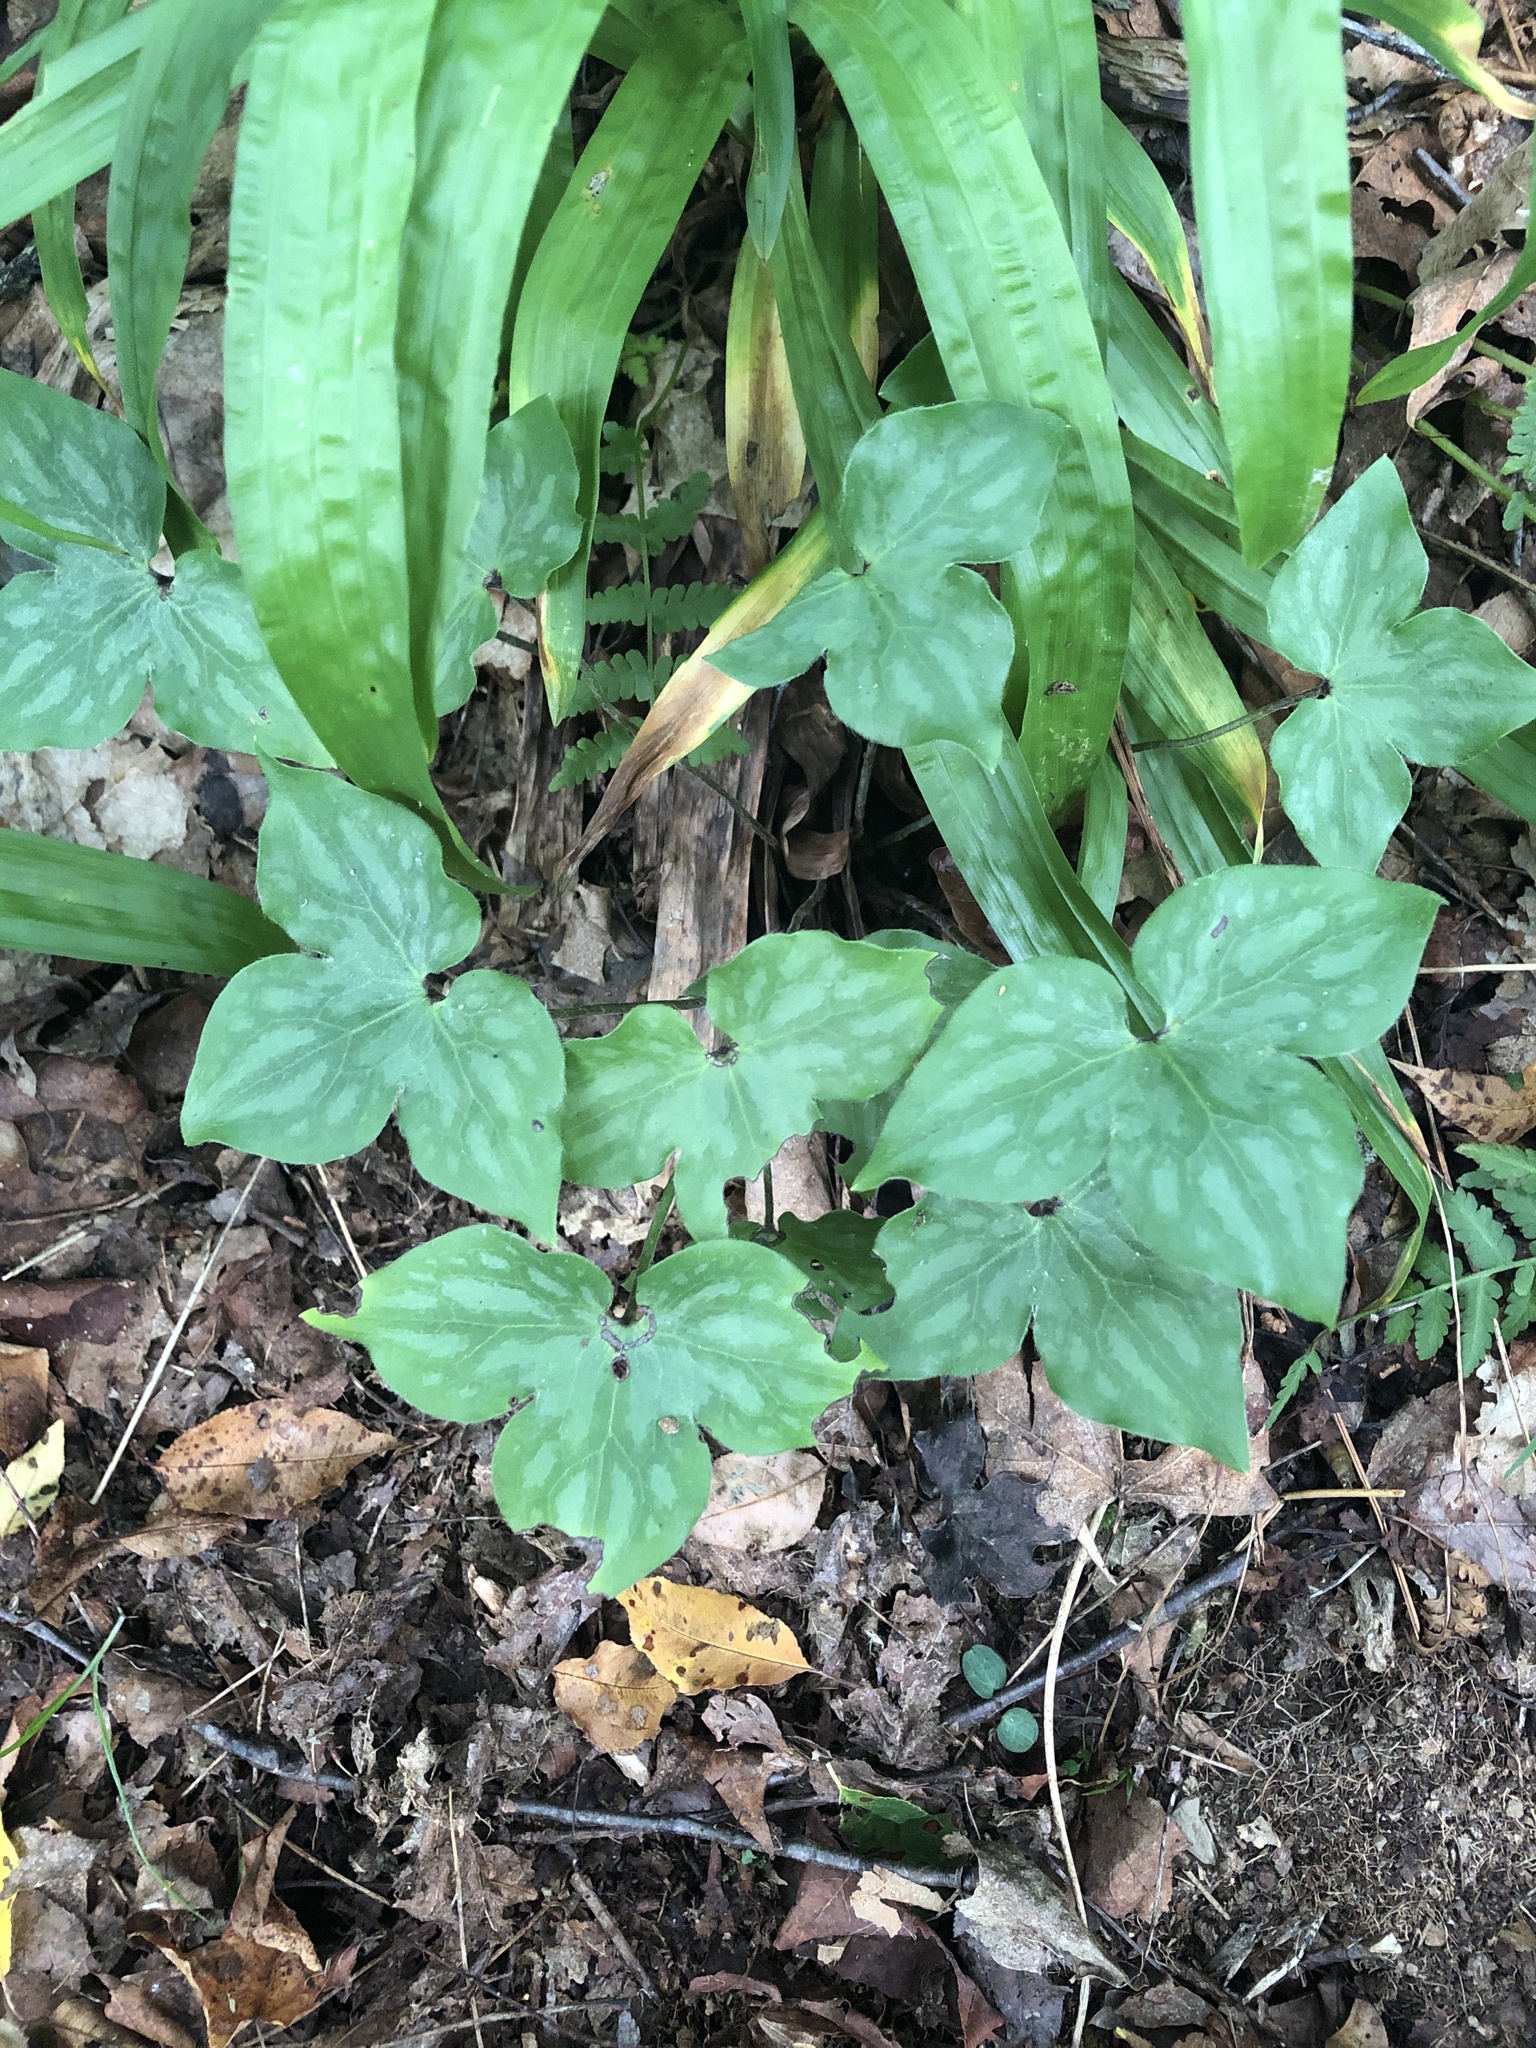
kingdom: Plantae
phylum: Tracheophyta
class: Magnoliopsida
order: Ranunculales
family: Ranunculaceae
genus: Hepatica
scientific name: Hepatica acutiloba
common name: Sharp-lobed hepatica
